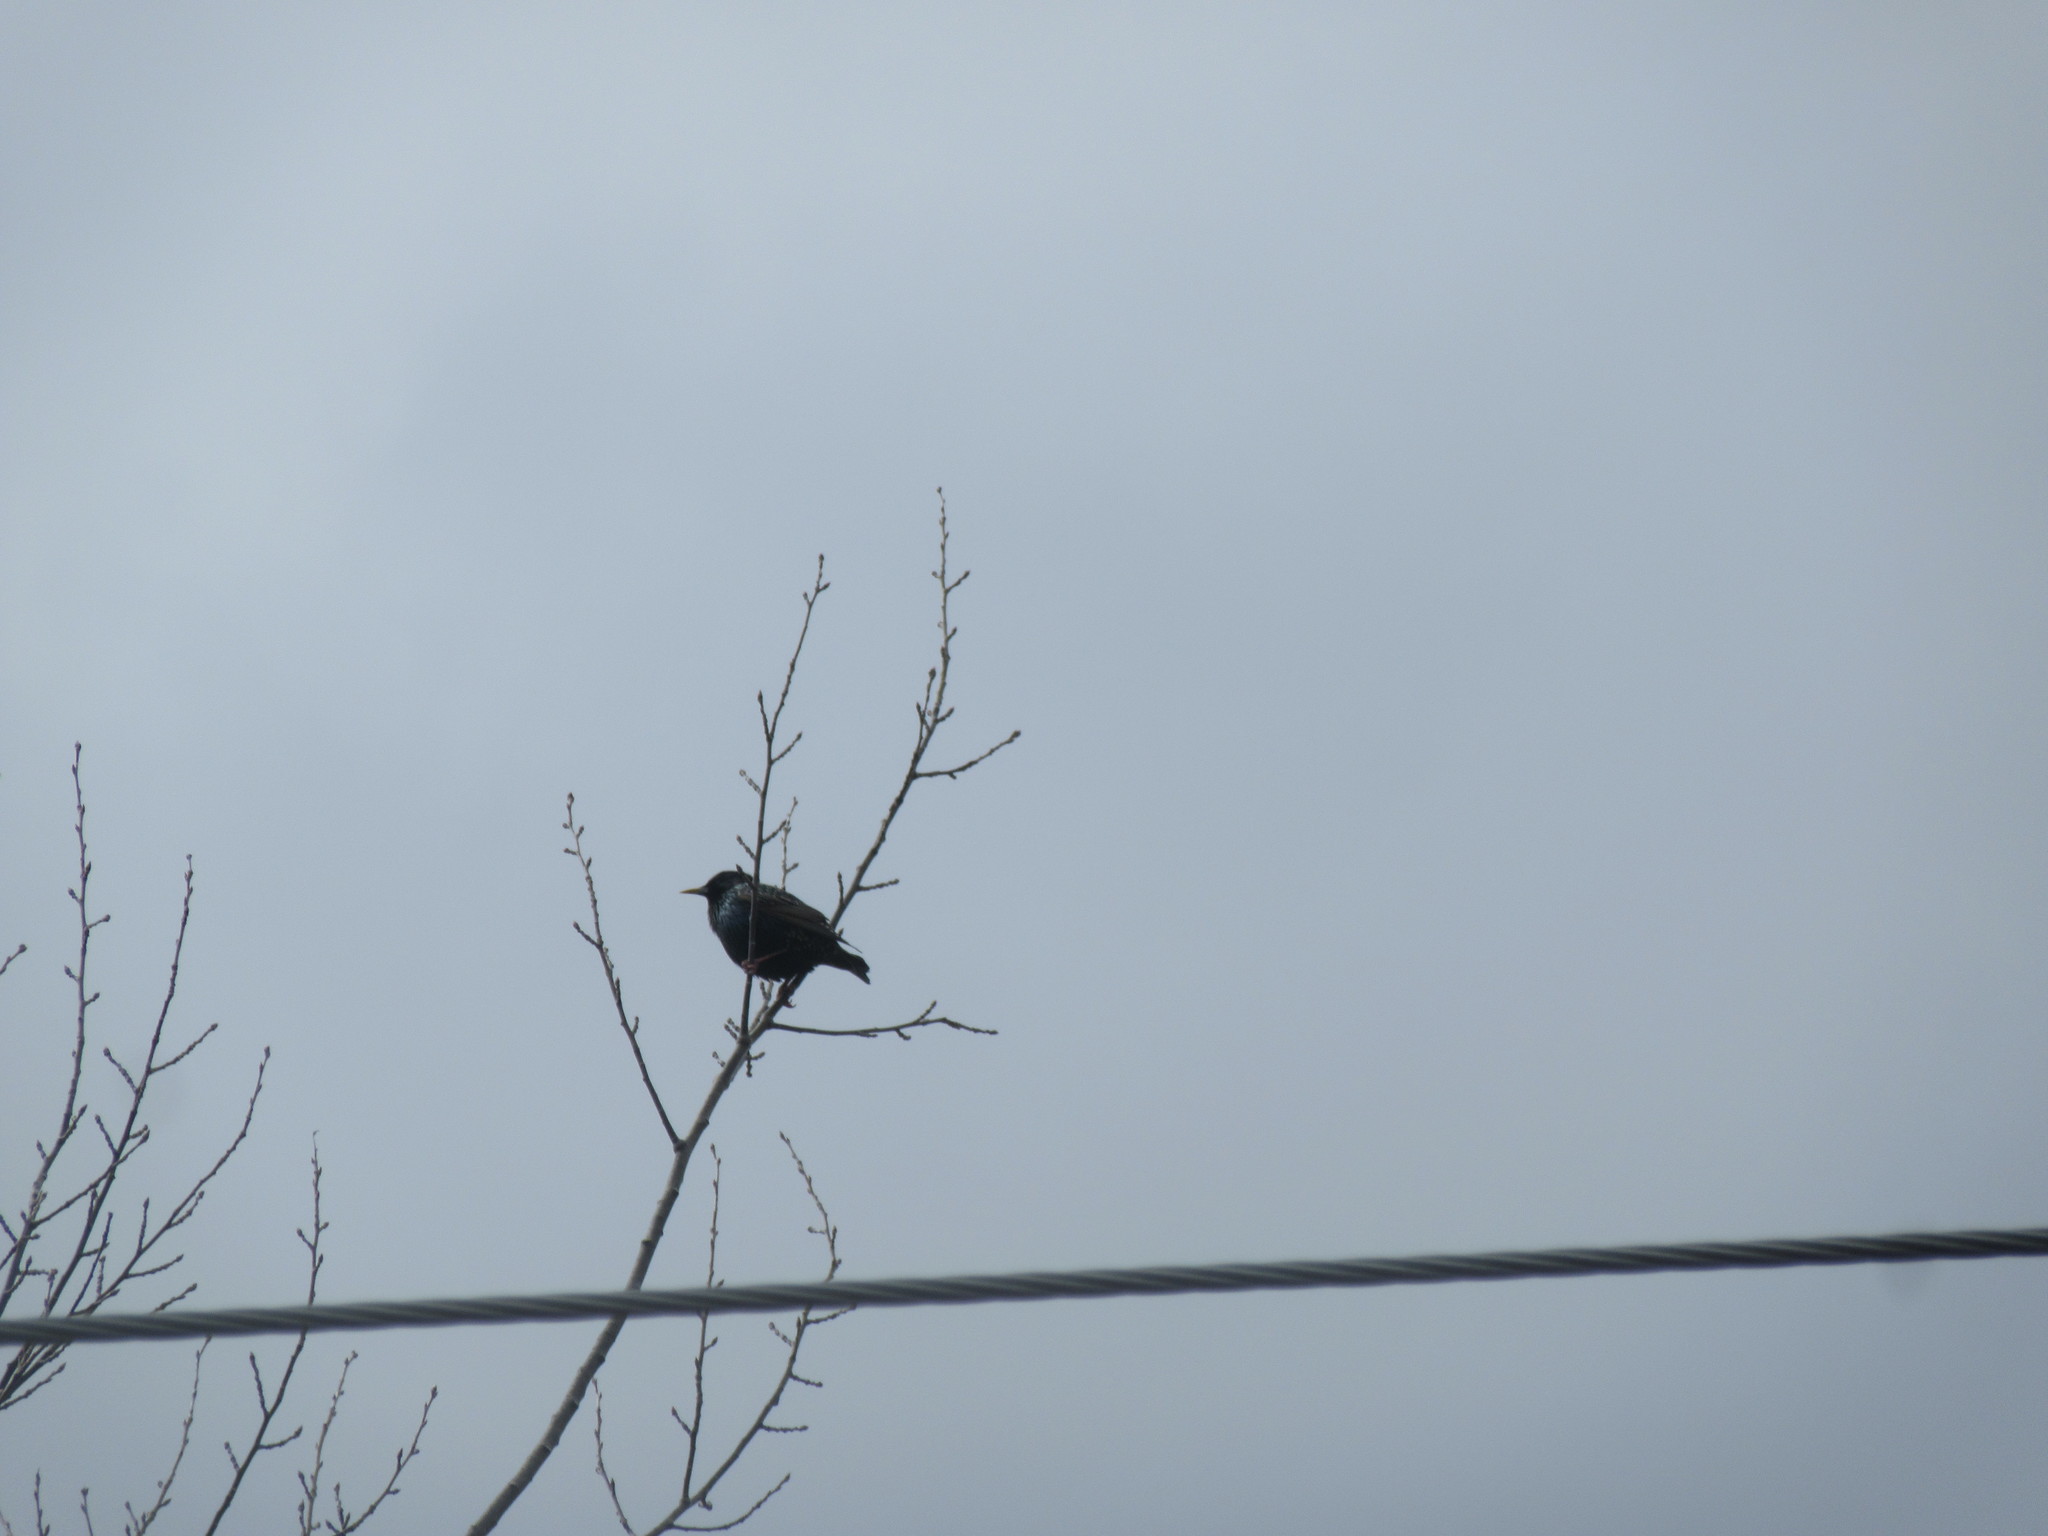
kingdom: Animalia
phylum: Chordata
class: Aves
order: Passeriformes
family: Sturnidae
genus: Sturnus
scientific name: Sturnus vulgaris
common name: Common starling
